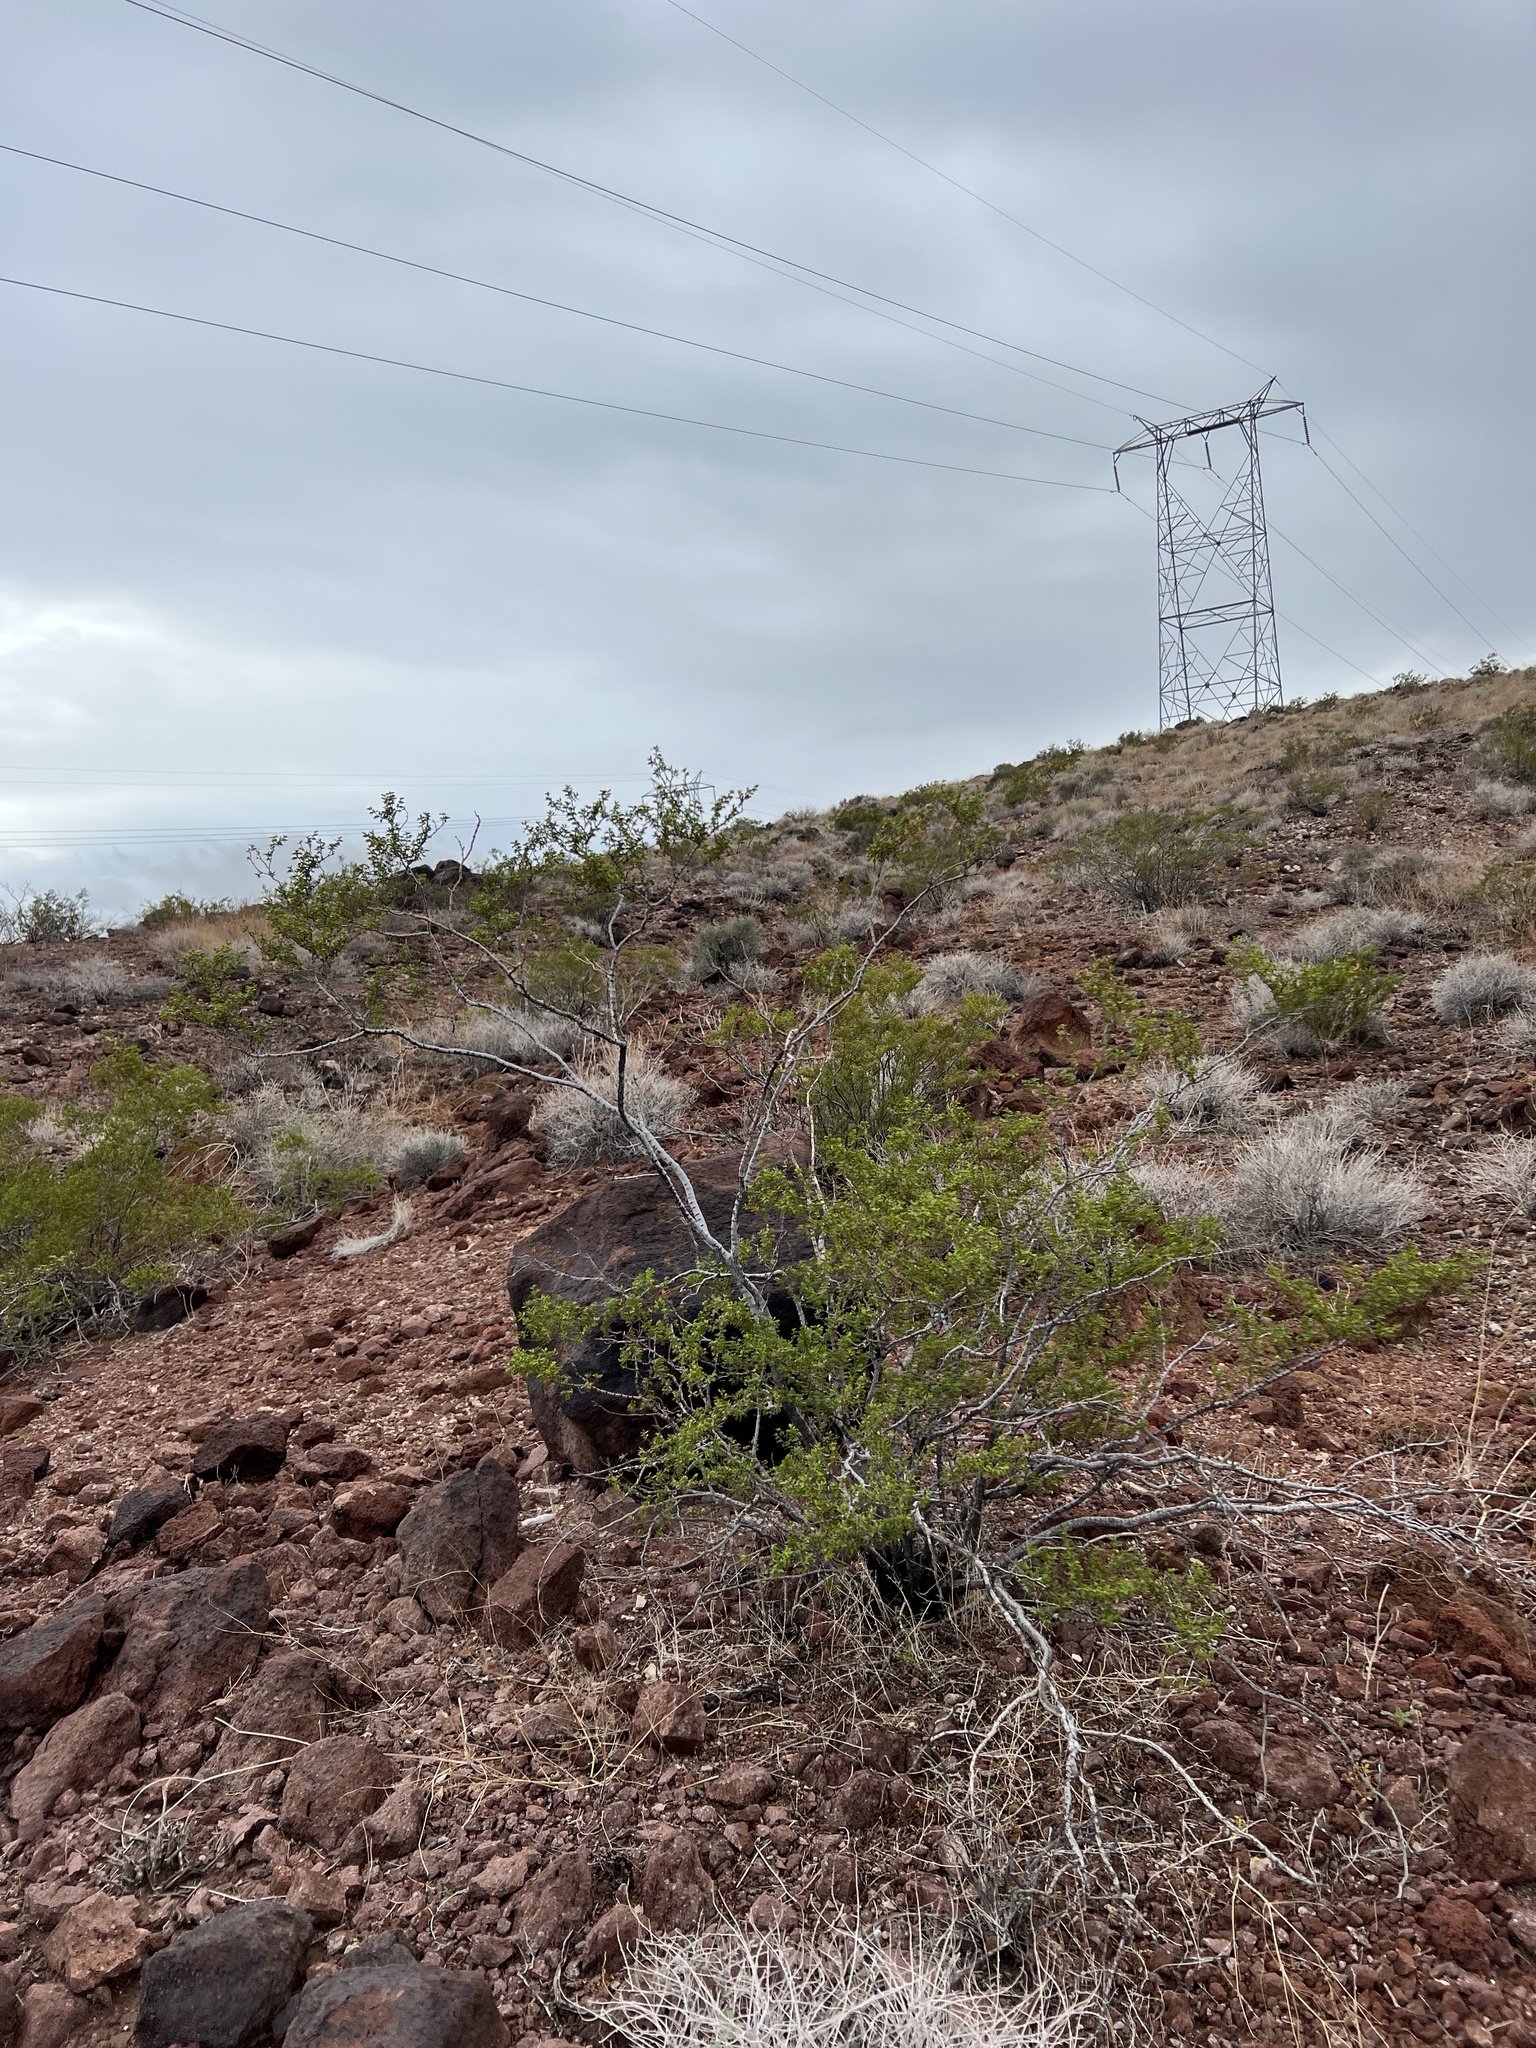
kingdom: Plantae
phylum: Tracheophyta
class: Magnoliopsida
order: Zygophyllales
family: Zygophyllaceae
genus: Larrea
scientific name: Larrea tridentata
